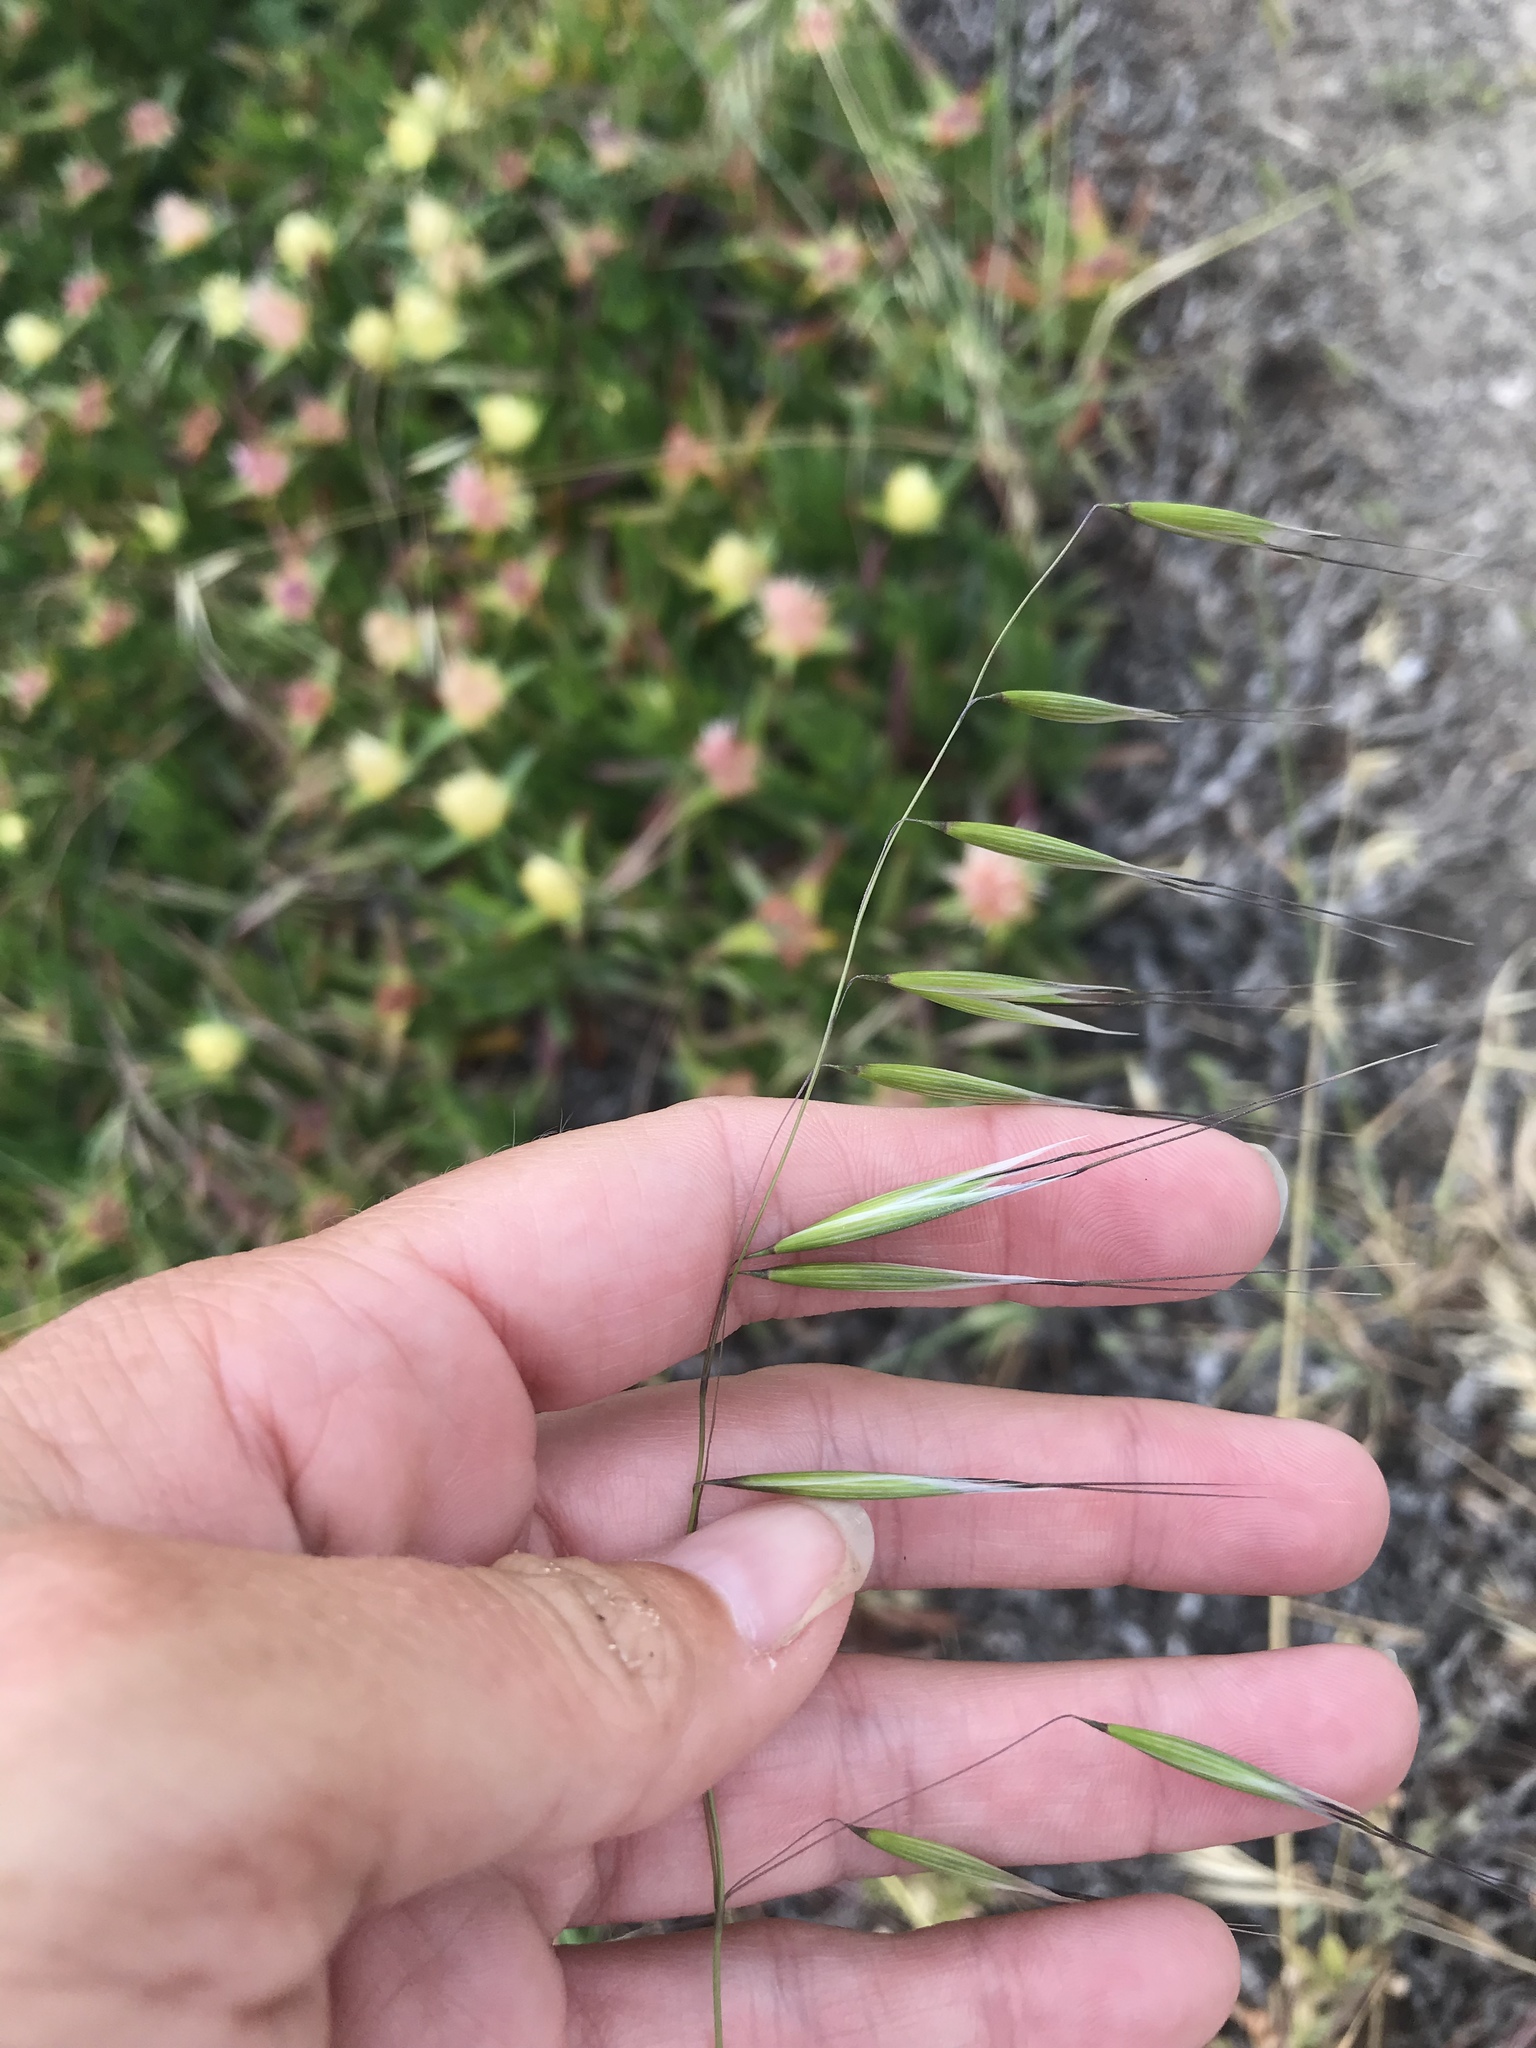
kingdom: Plantae
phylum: Tracheophyta
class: Liliopsida
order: Poales
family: Poaceae
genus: Avena
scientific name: Avena barbata
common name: Slender oat
